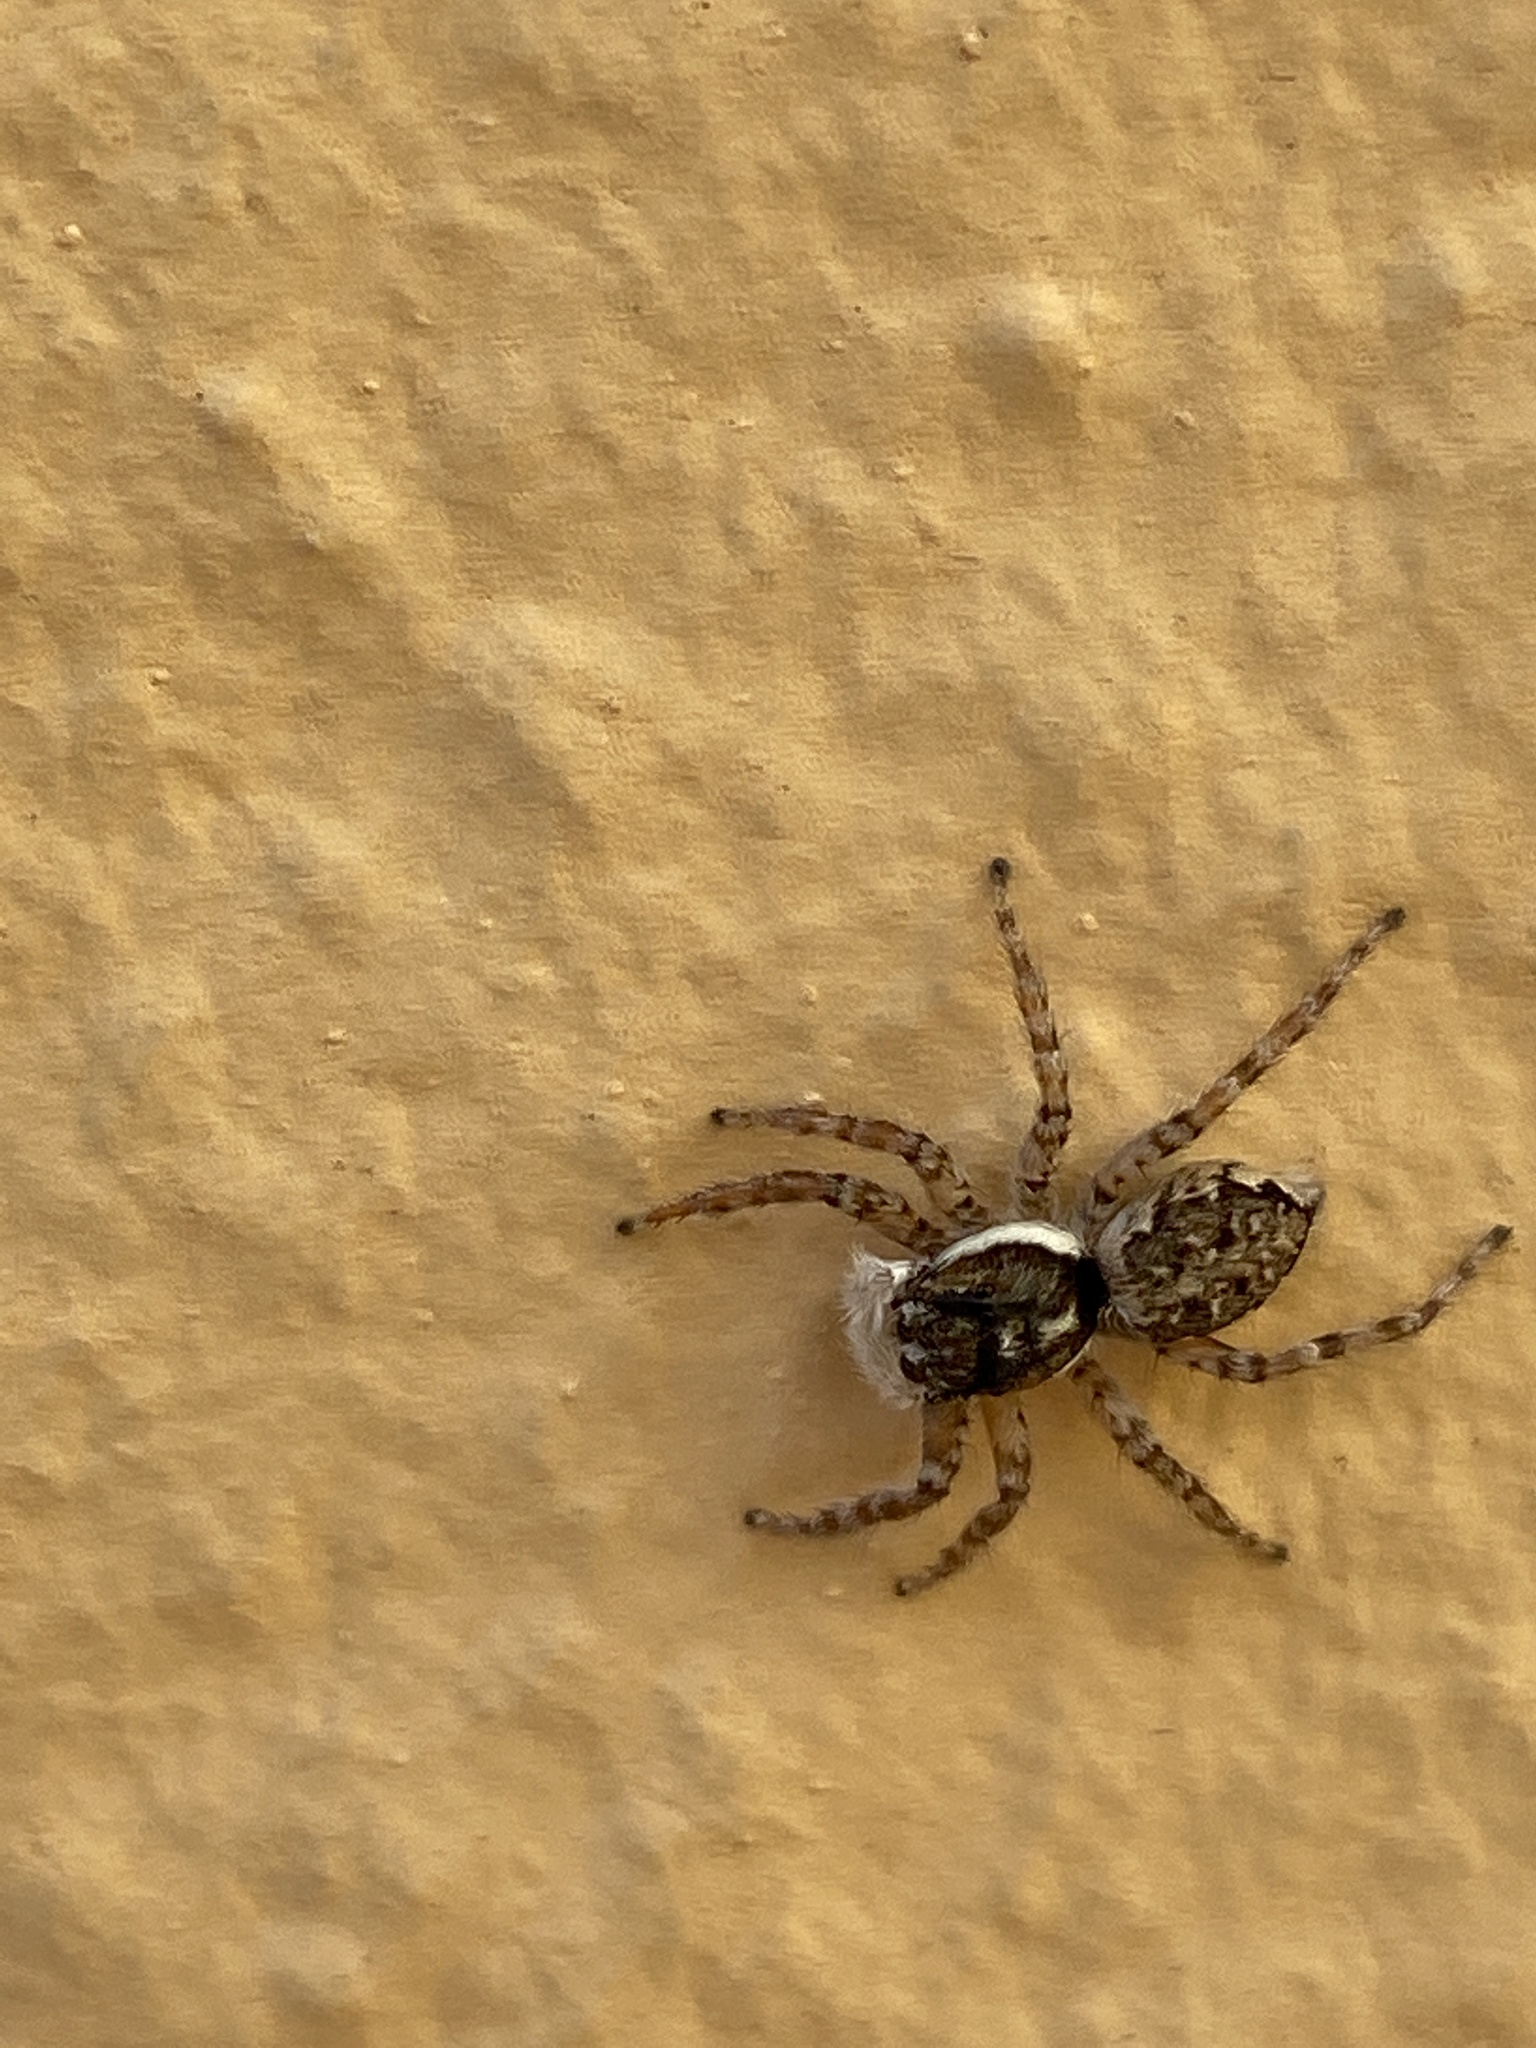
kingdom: Animalia
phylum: Arthropoda
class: Arachnida
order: Araneae
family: Salticidae
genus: Menemerus
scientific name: Menemerus semilimbatus
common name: Jumping spider
